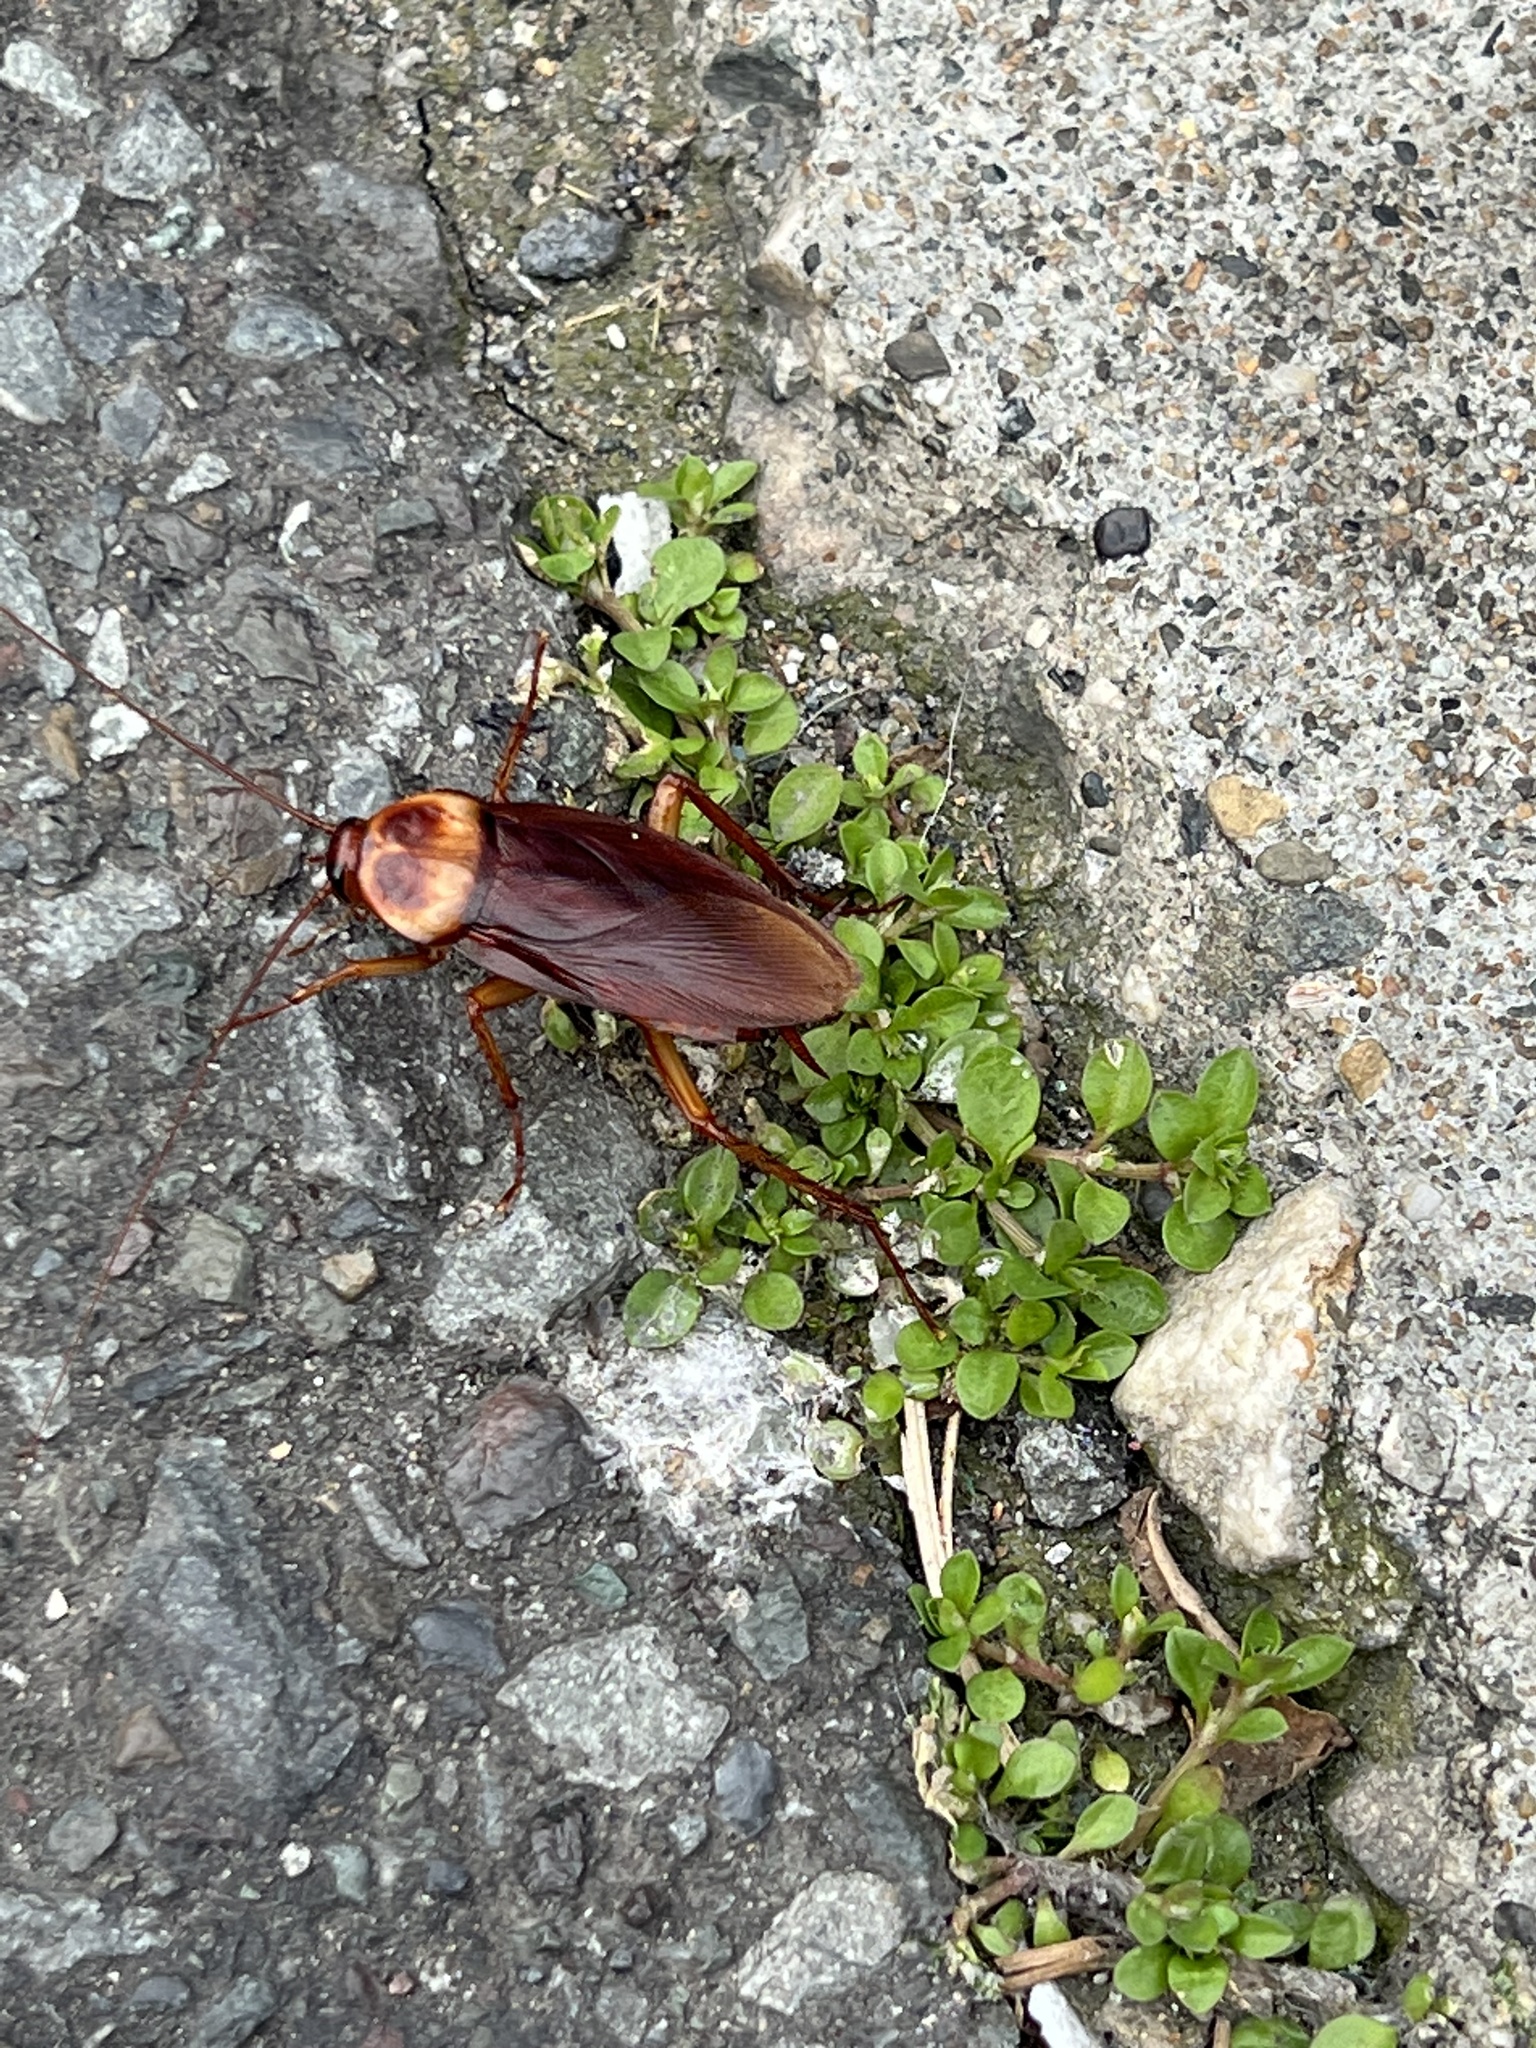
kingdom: Animalia
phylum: Arthropoda
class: Insecta
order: Blattodea
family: Blattidae
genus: Periplaneta
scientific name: Periplaneta americana
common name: American cockroach
